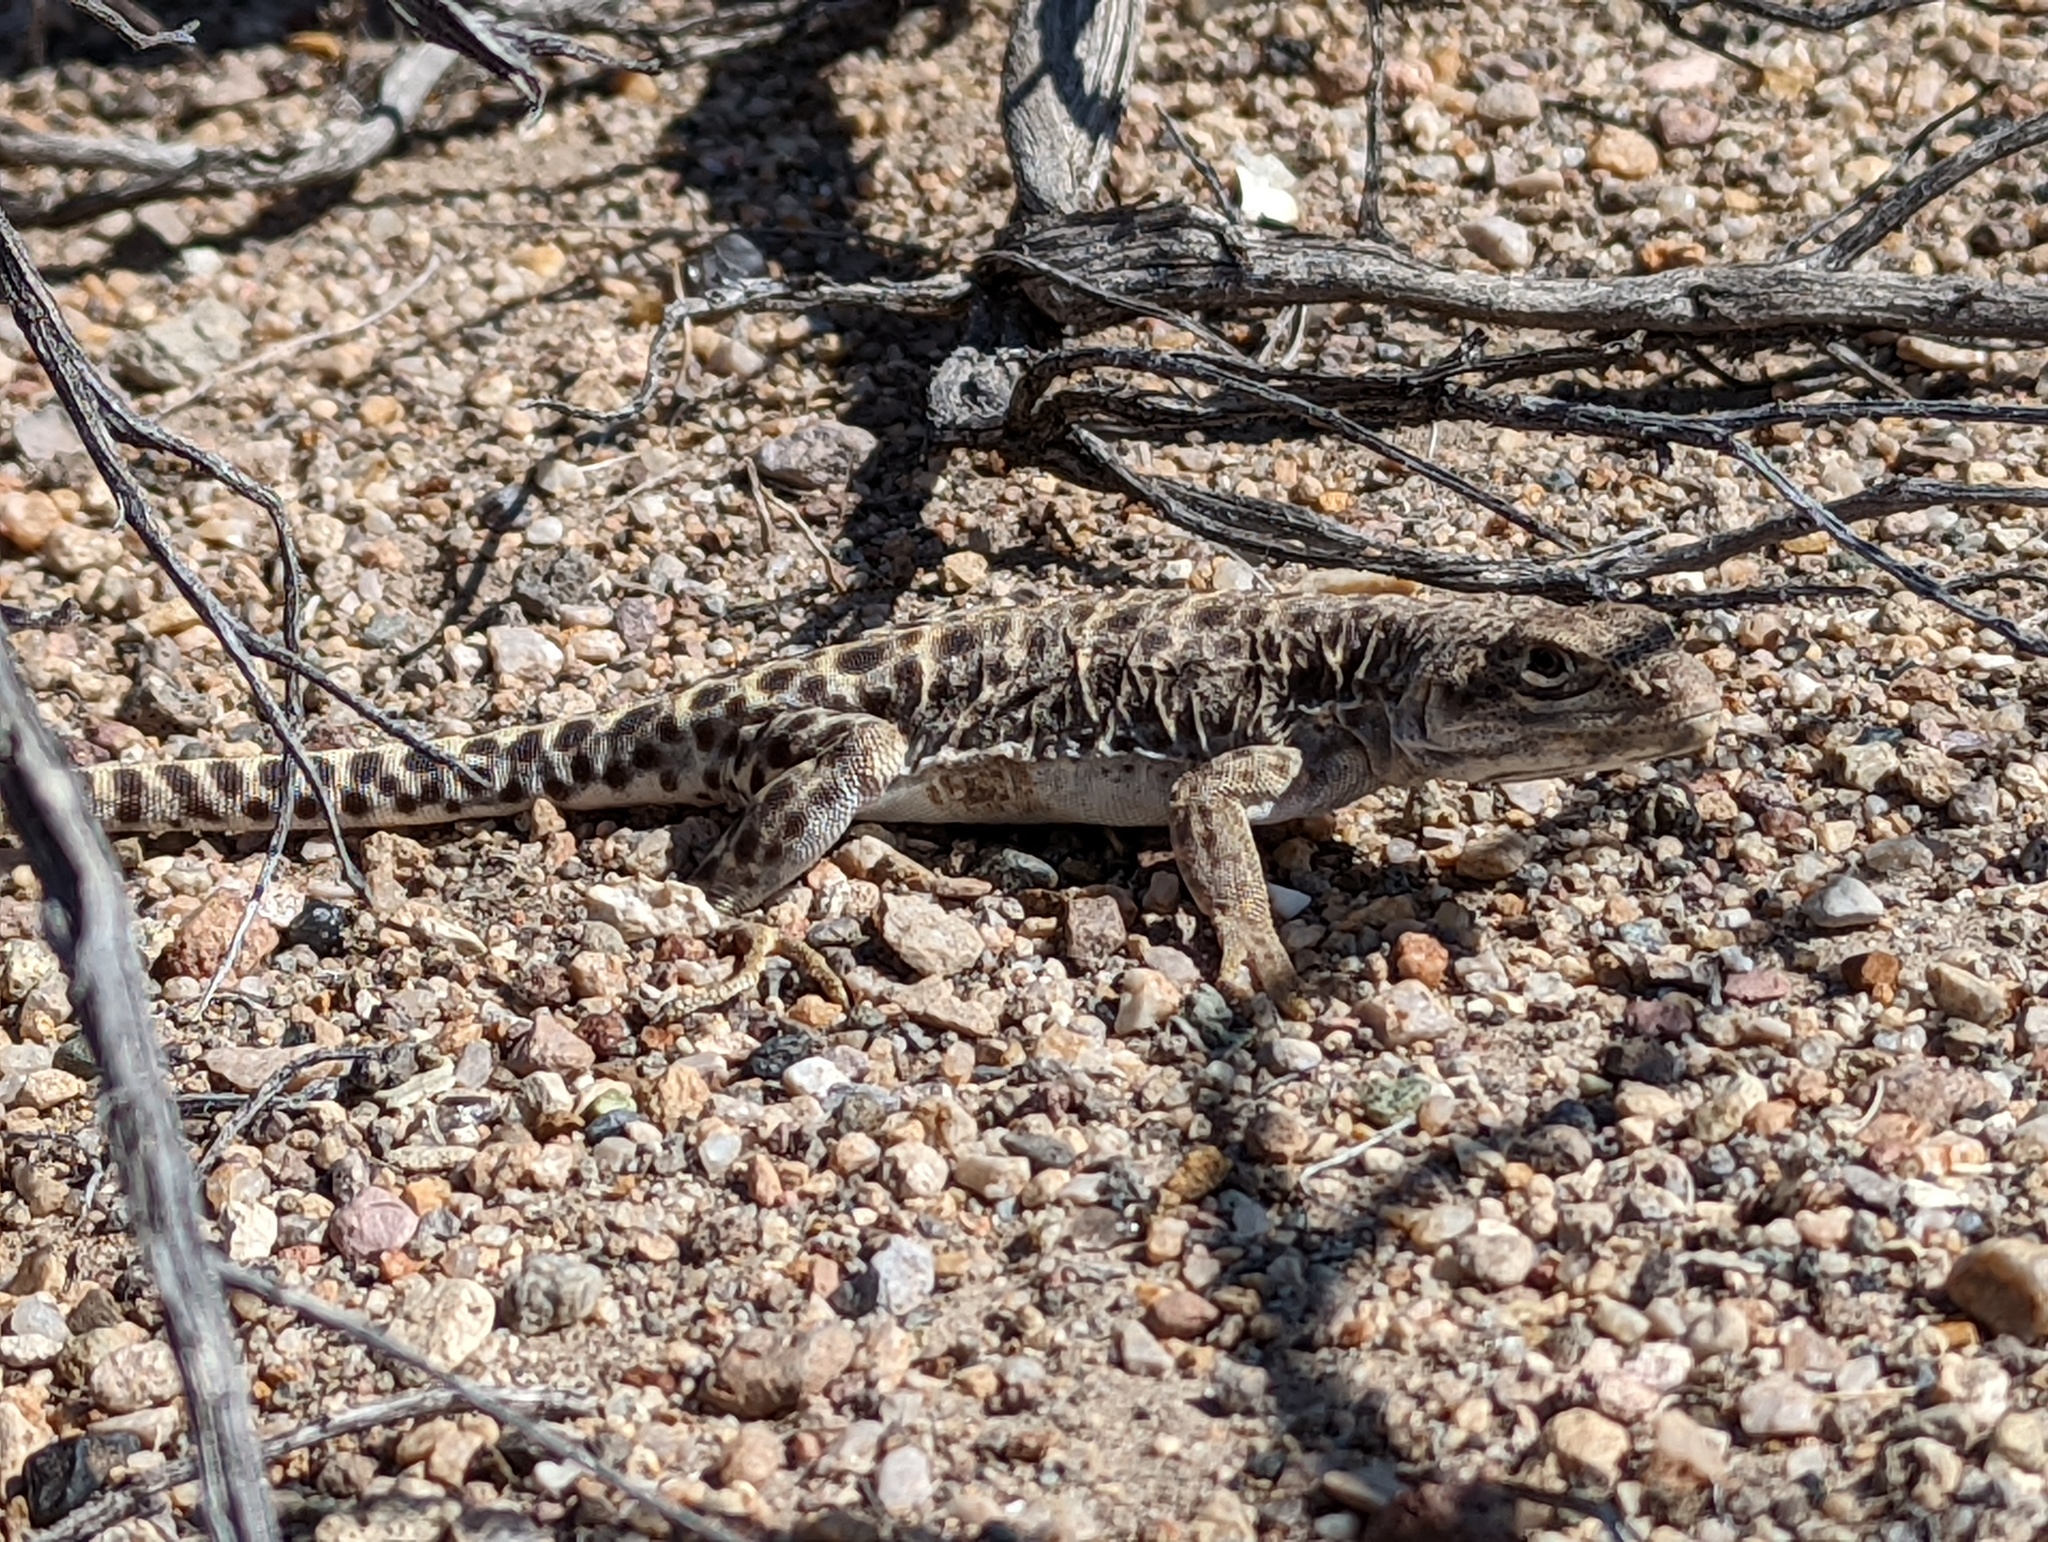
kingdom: Animalia
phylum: Chordata
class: Squamata
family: Crotaphytidae
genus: Gambelia
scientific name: Gambelia wislizenii
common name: Longnose leopard lizard
